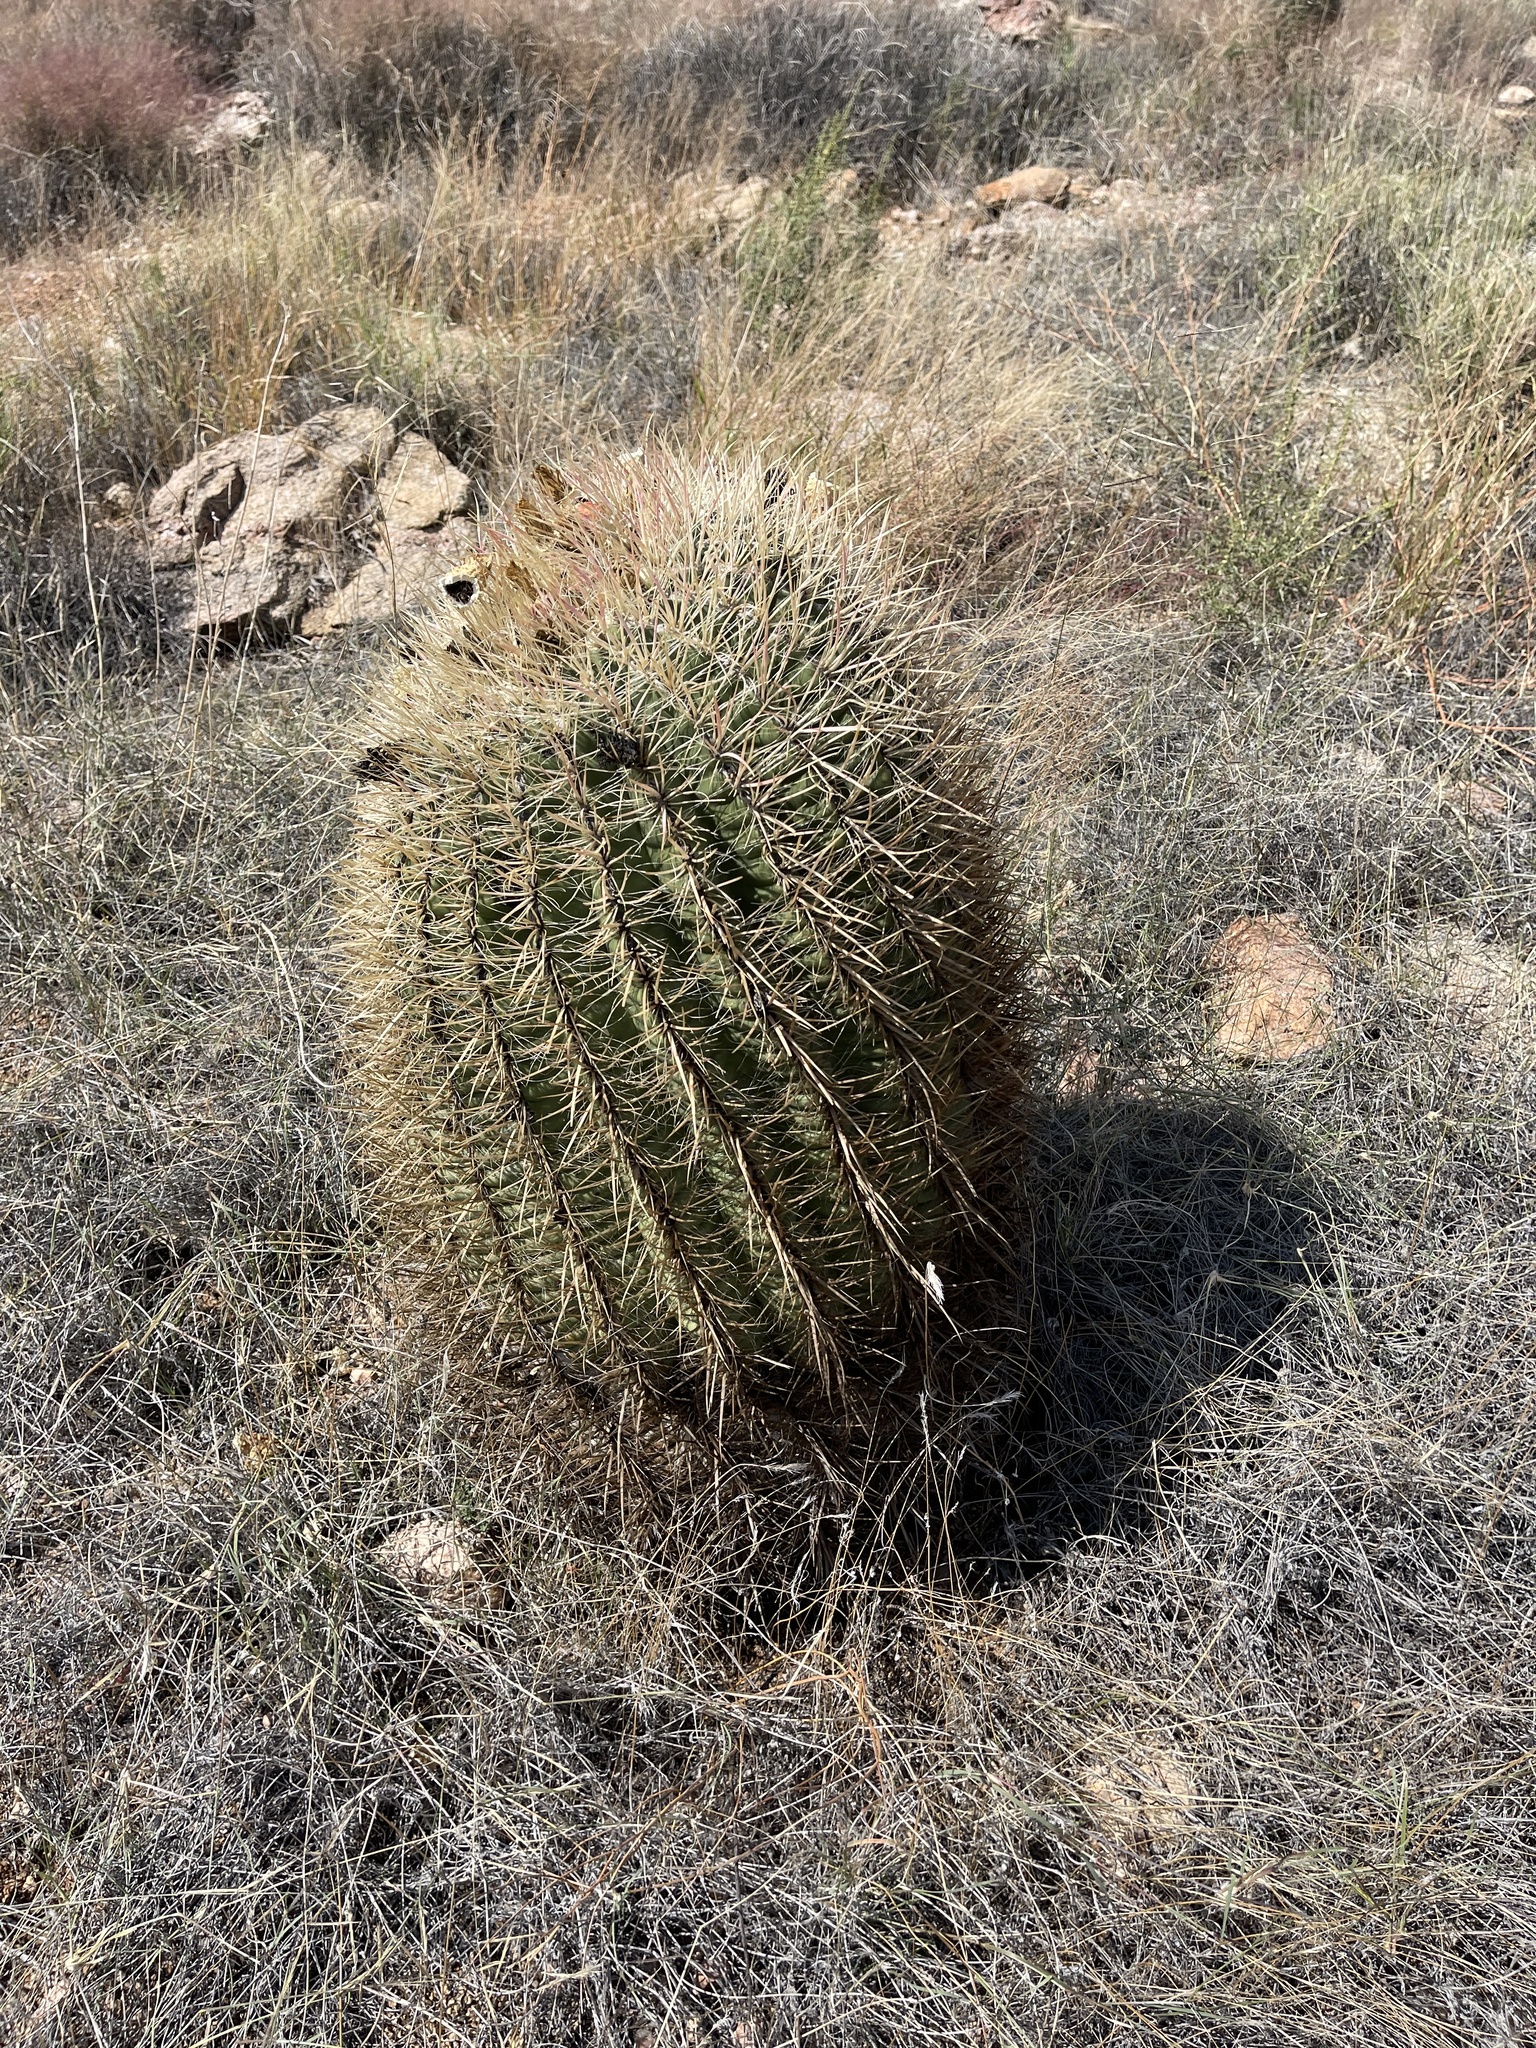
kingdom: Plantae
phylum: Tracheophyta
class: Magnoliopsida
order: Caryophyllales
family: Cactaceae
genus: Ferocactus
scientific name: Ferocactus cylindraceus
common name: California barrel cactus
